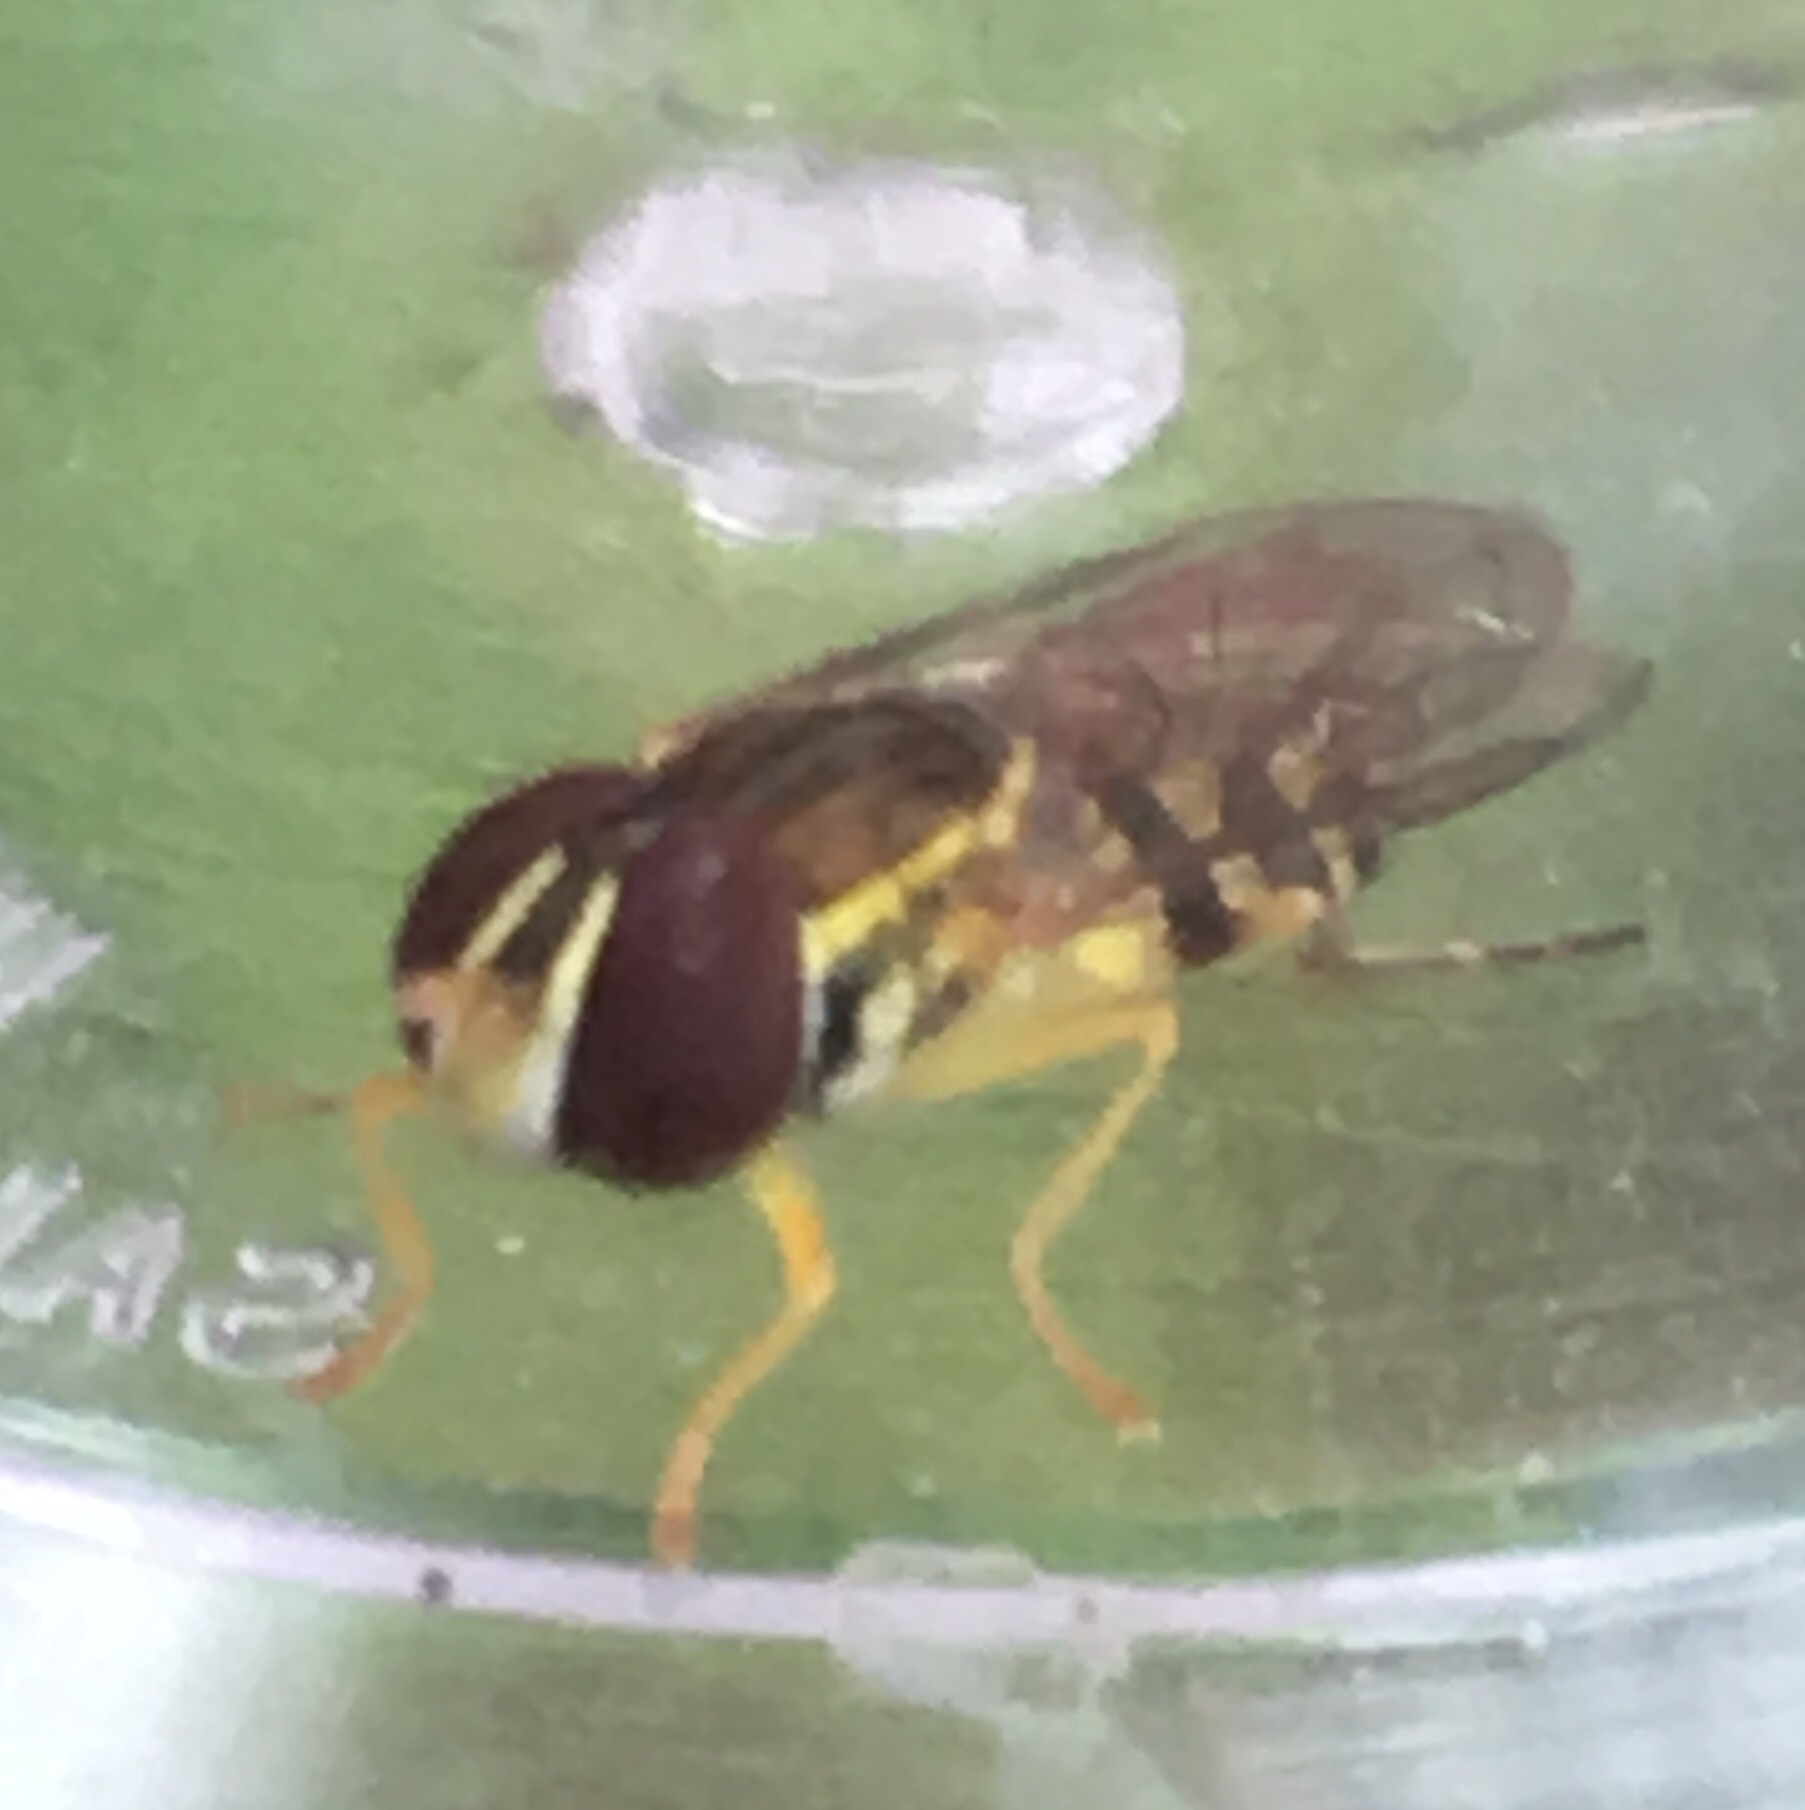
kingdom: Animalia
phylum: Arthropoda
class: Insecta
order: Diptera
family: Syrphidae
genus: Toxomerus
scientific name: Toxomerus geminatus
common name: Eastern calligrapher
